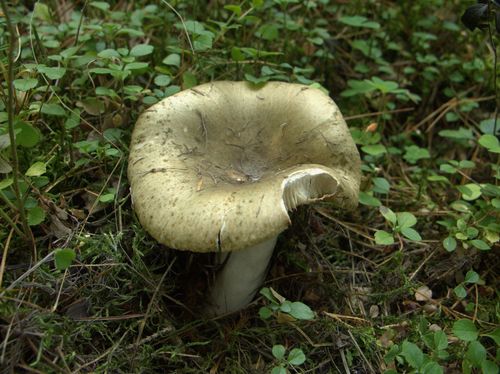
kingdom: Fungi
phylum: Basidiomycota
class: Agaricomycetes
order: Russulales
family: Russulaceae
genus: Russula
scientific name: Russula heterophylla
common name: Greasy green brittlegill
